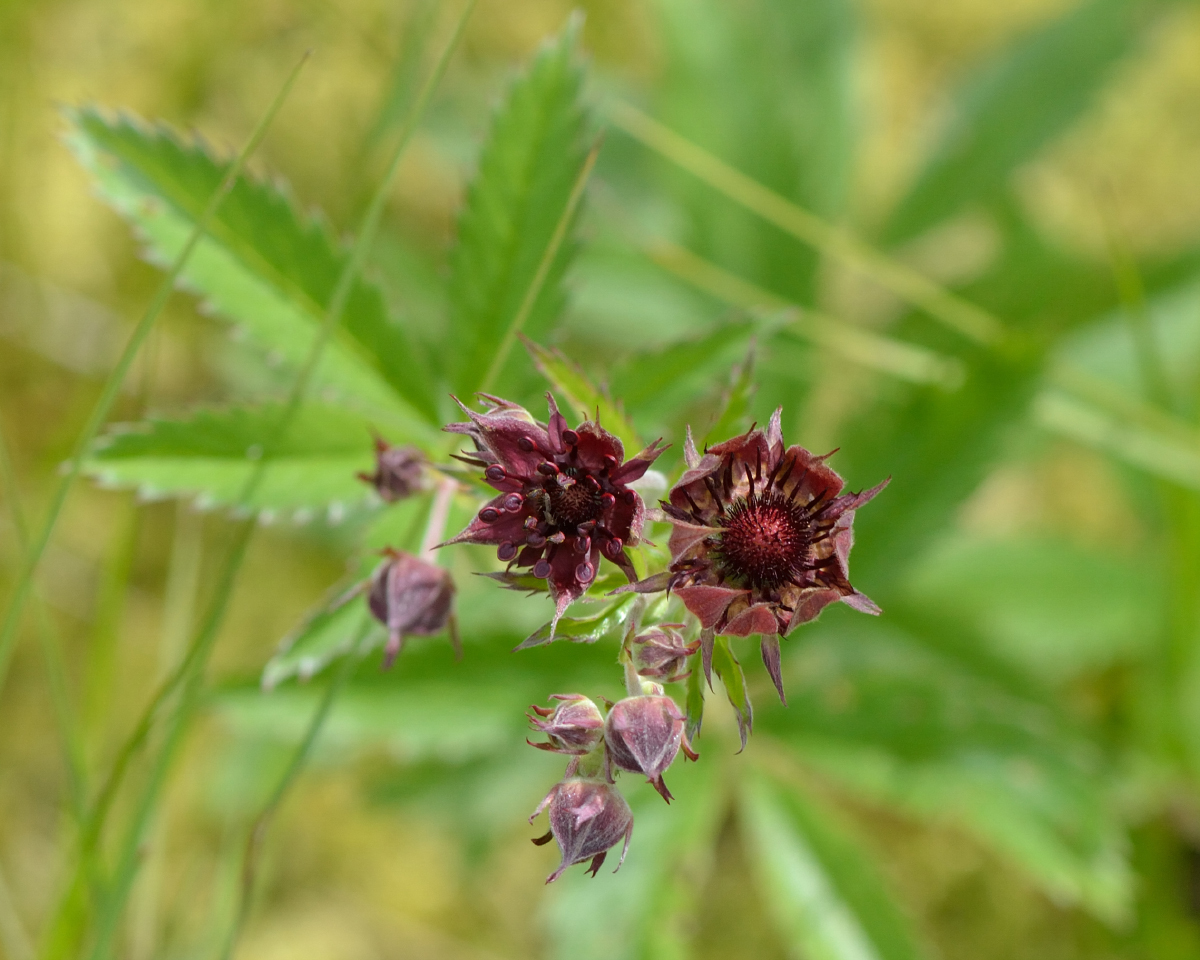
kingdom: Plantae
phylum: Tracheophyta
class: Magnoliopsida
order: Rosales
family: Rosaceae
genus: Comarum
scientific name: Comarum palustre
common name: Marsh cinquefoil
